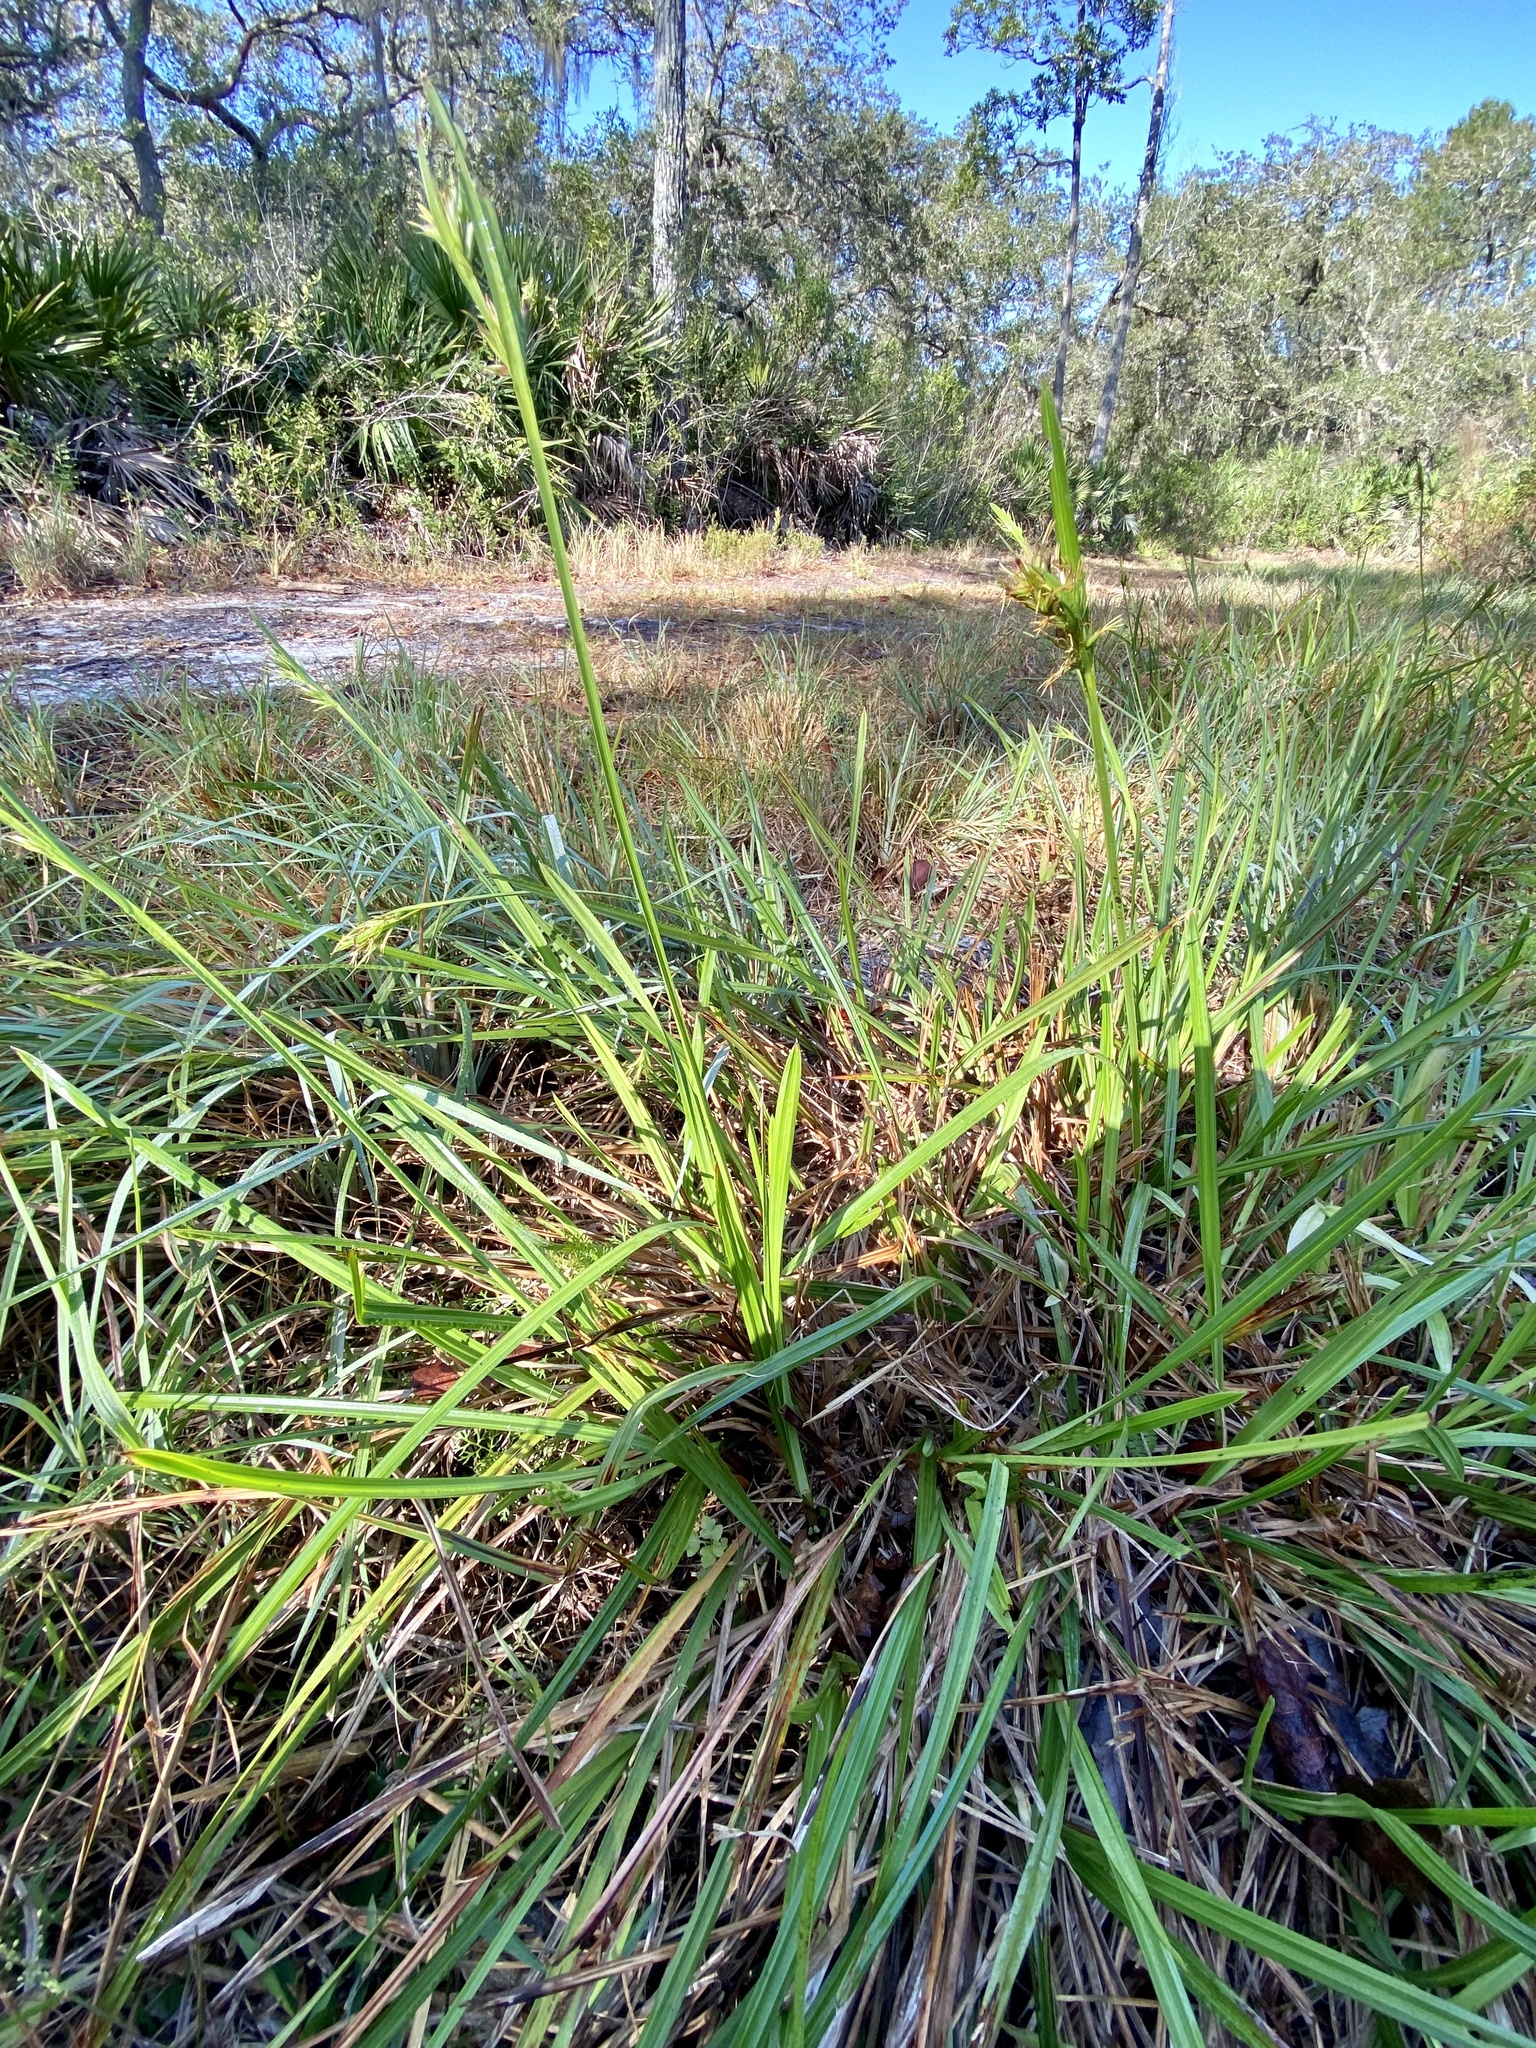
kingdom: Plantae
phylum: Tracheophyta
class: Liliopsida
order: Poales
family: Cyperaceae
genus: Scleria
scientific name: Scleria triglomerata
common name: Whip nutrush
